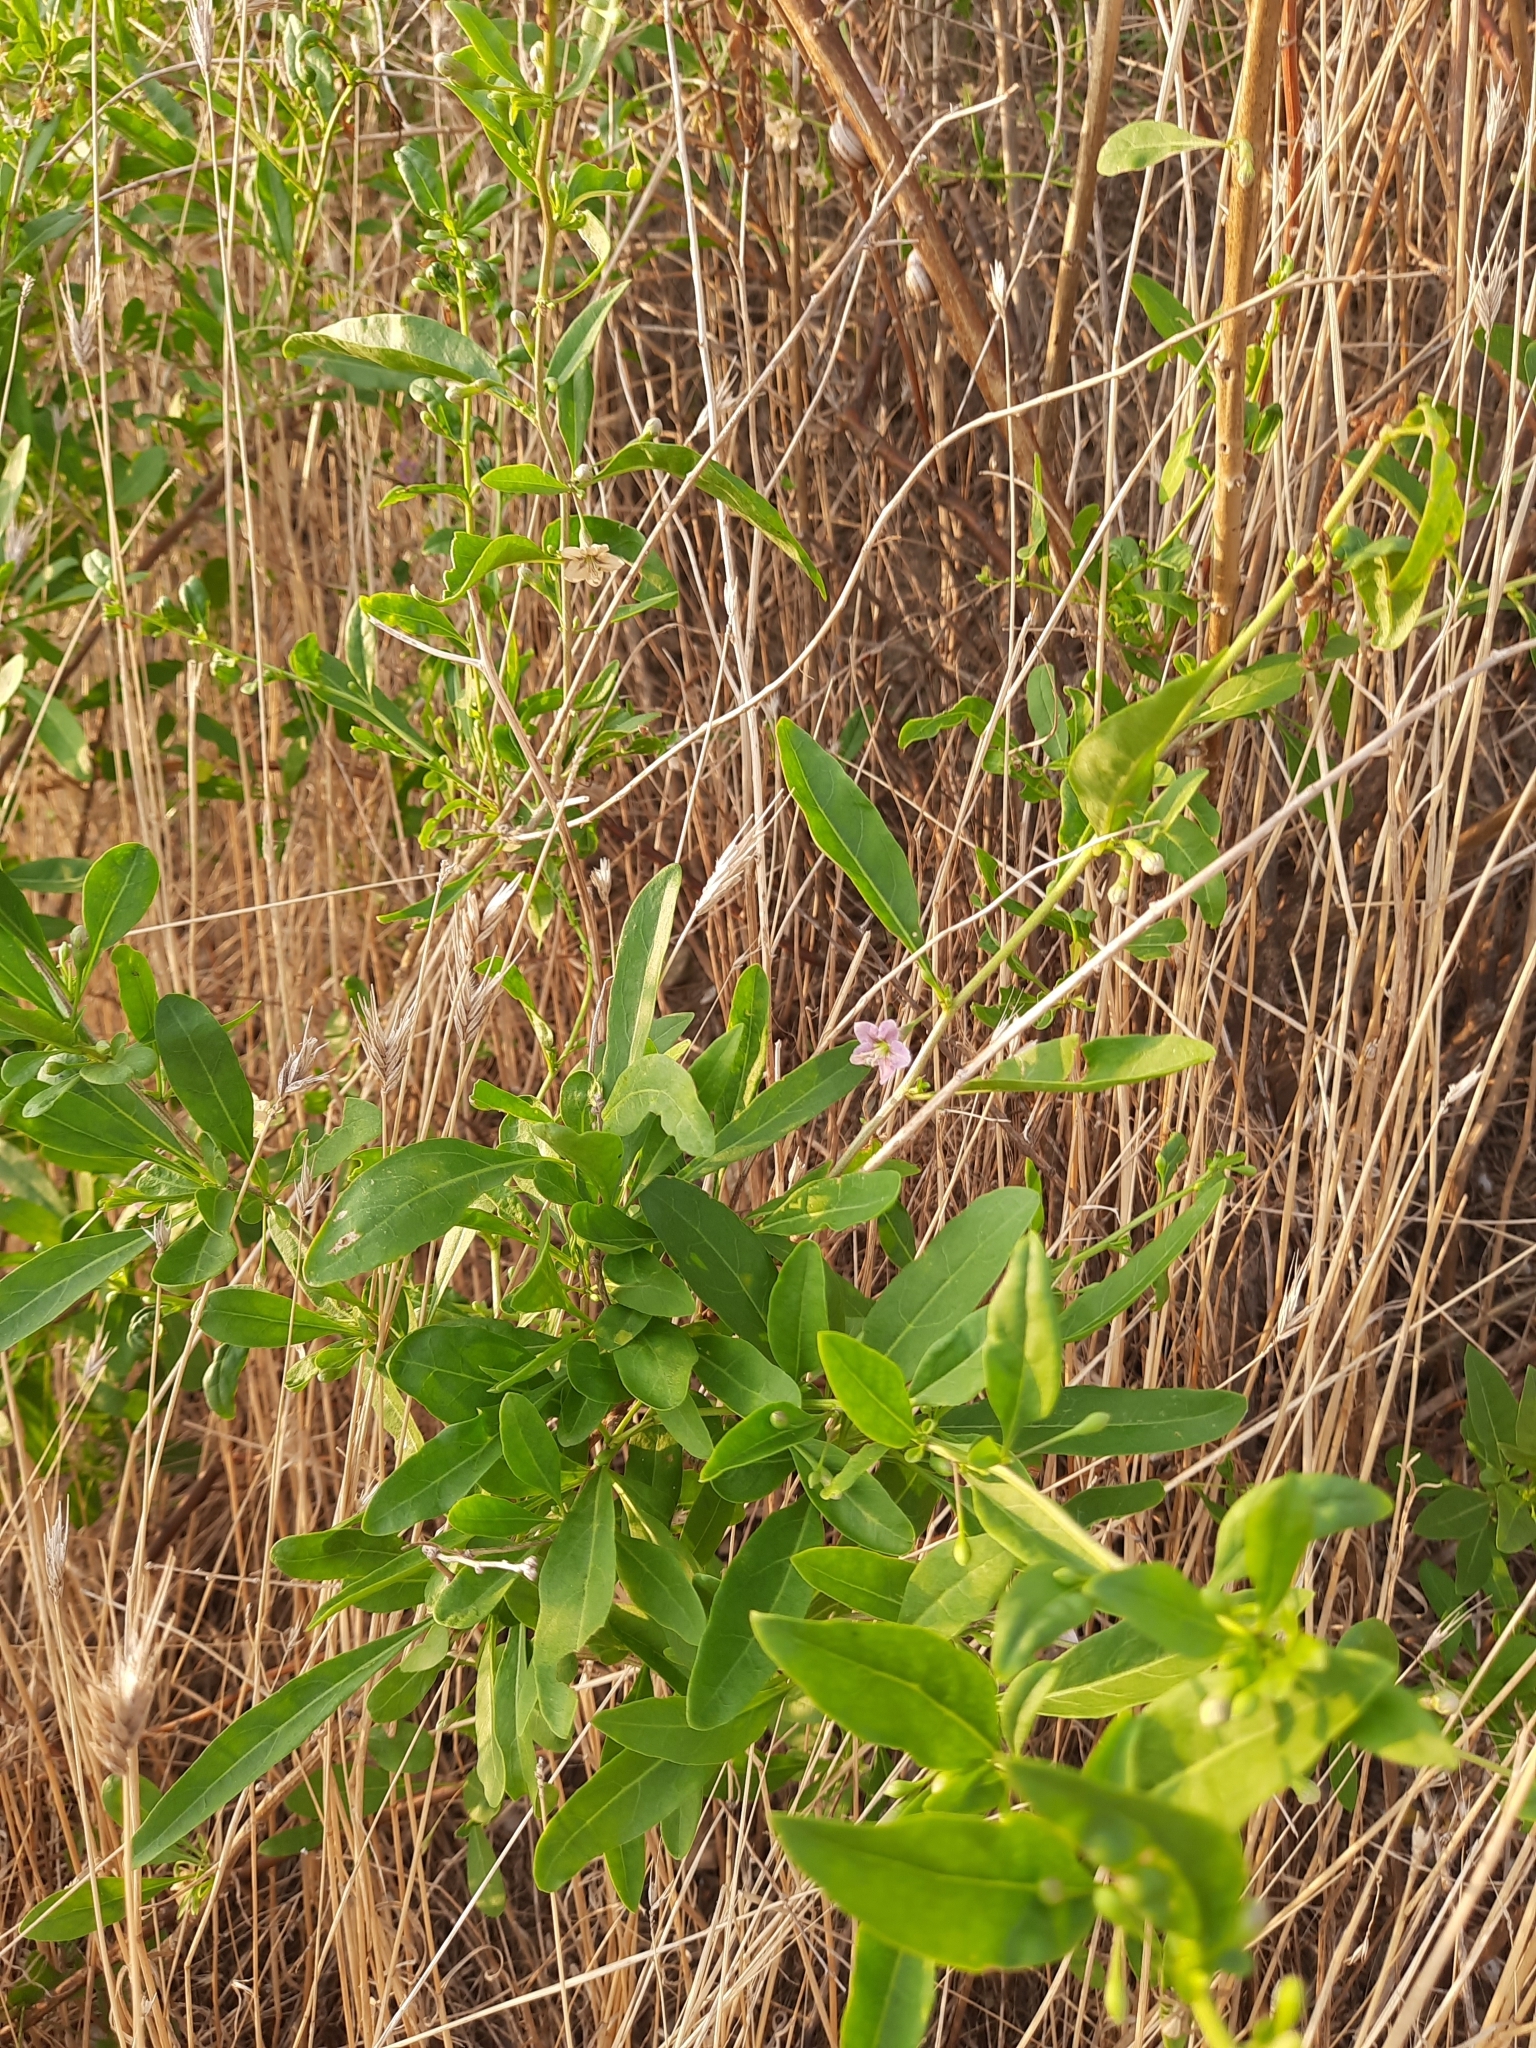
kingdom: Plantae
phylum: Tracheophyta
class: Magnoliopsida
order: Solanales
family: Solanaceae
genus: Lycium
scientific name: Lycium barbarum
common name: Duke of argyll's teaplant
